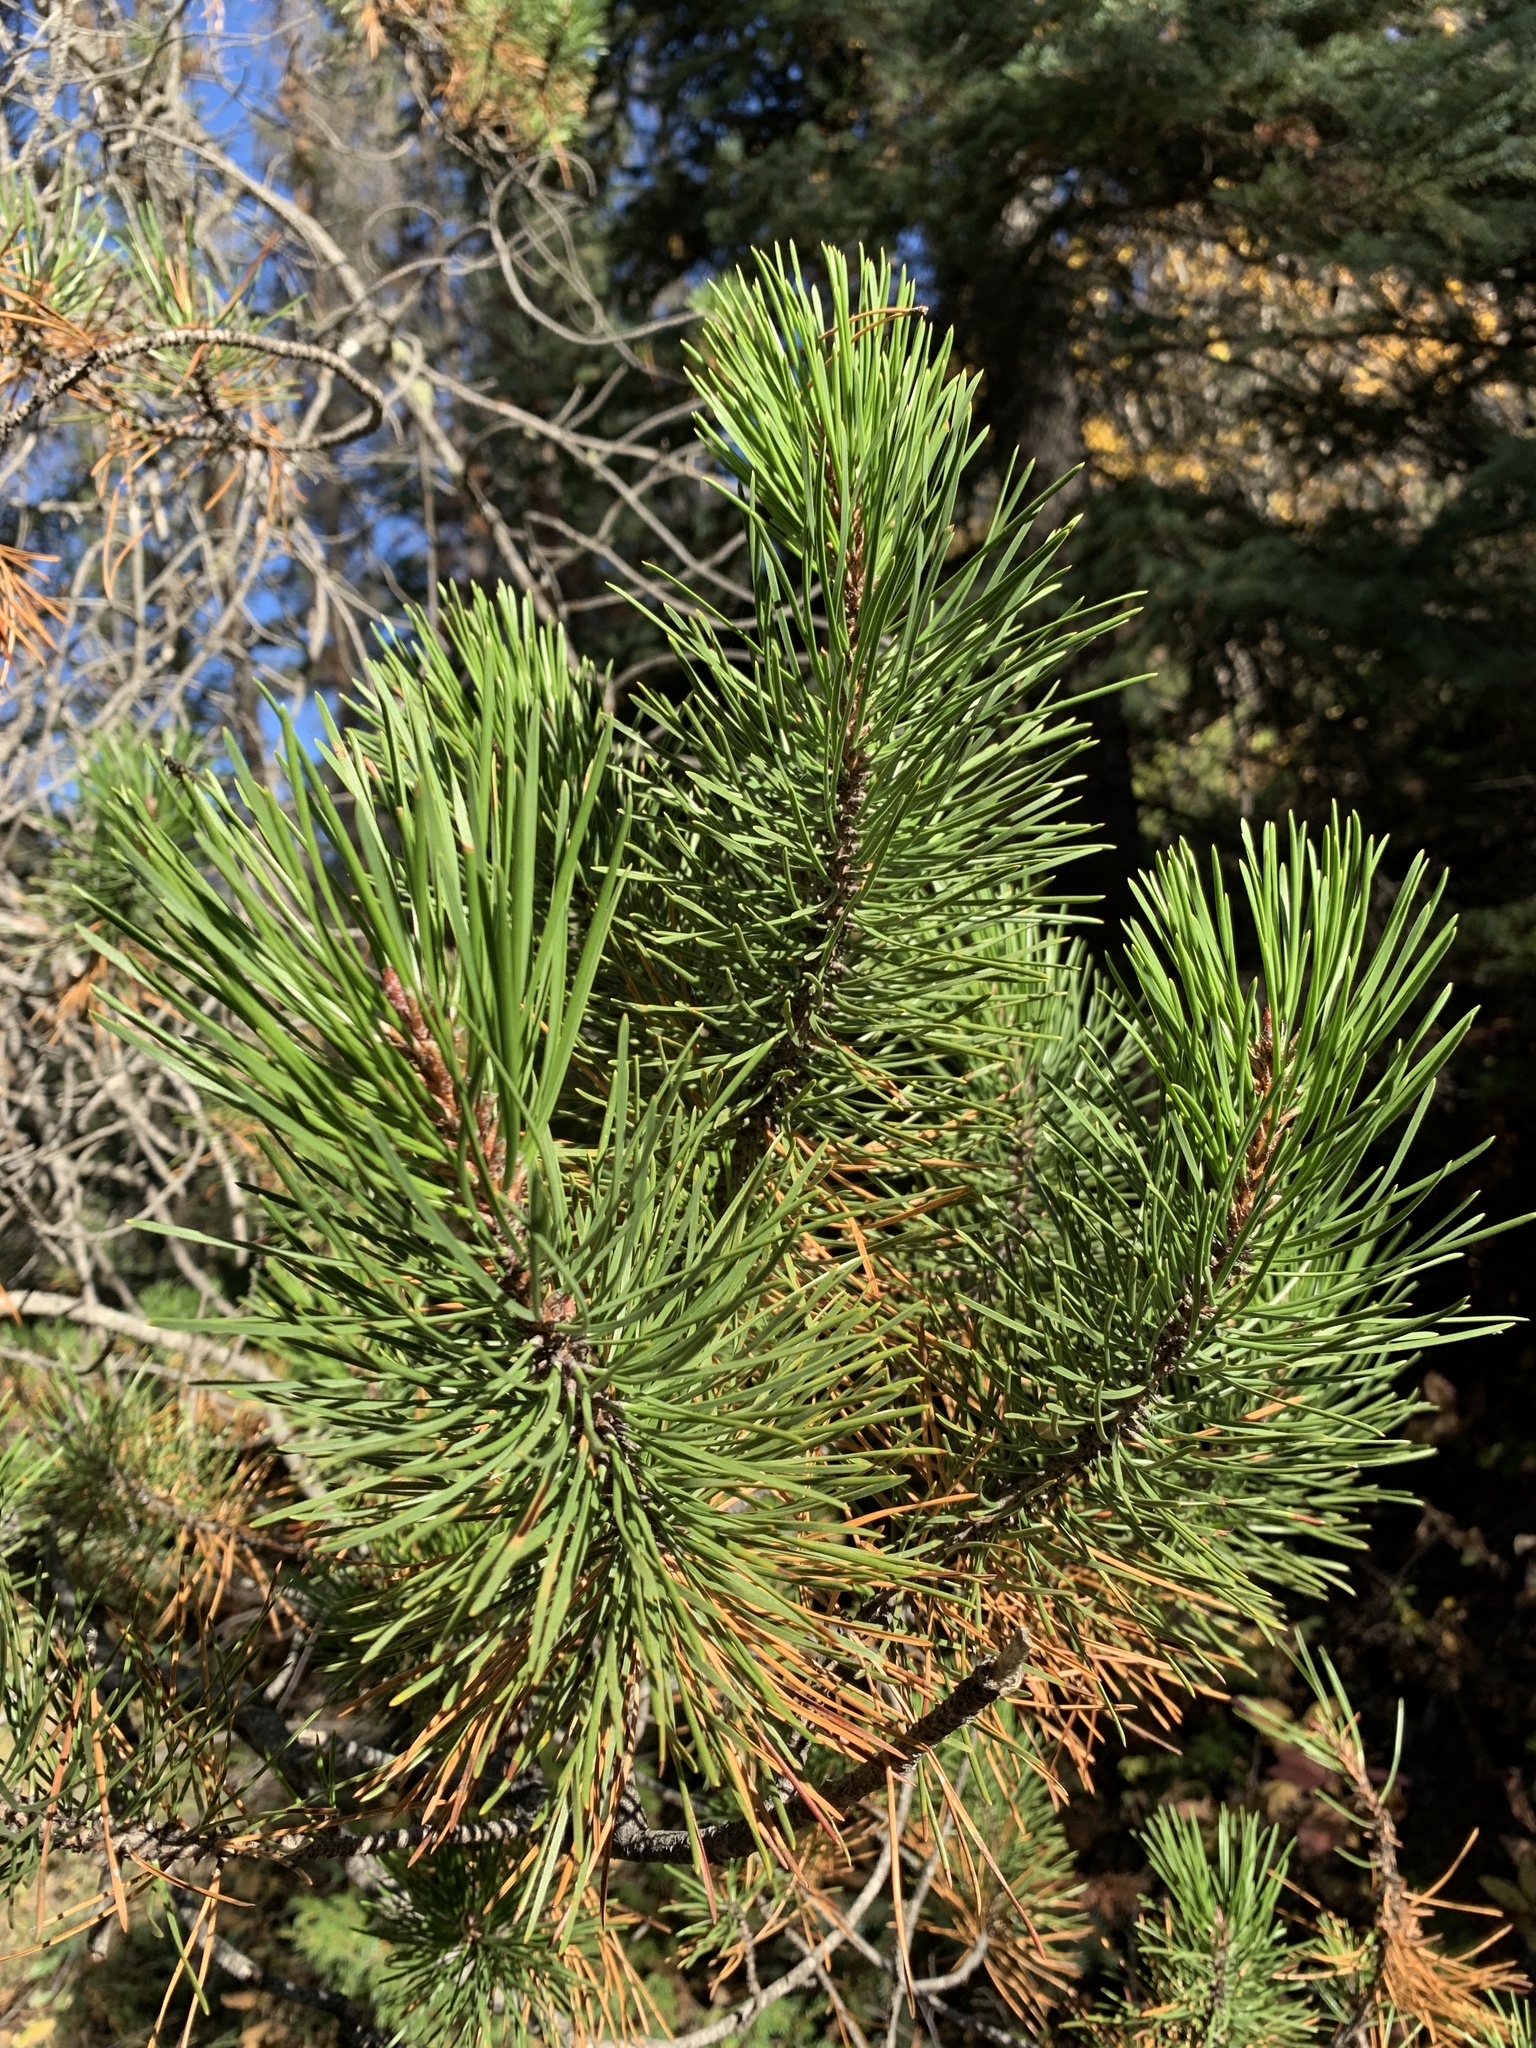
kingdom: Plantae
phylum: Tracheophyta
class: Pinopsida
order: Pinales
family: Pinaceae
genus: Pinus
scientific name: Pinus contorta
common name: Lodgepole pine
